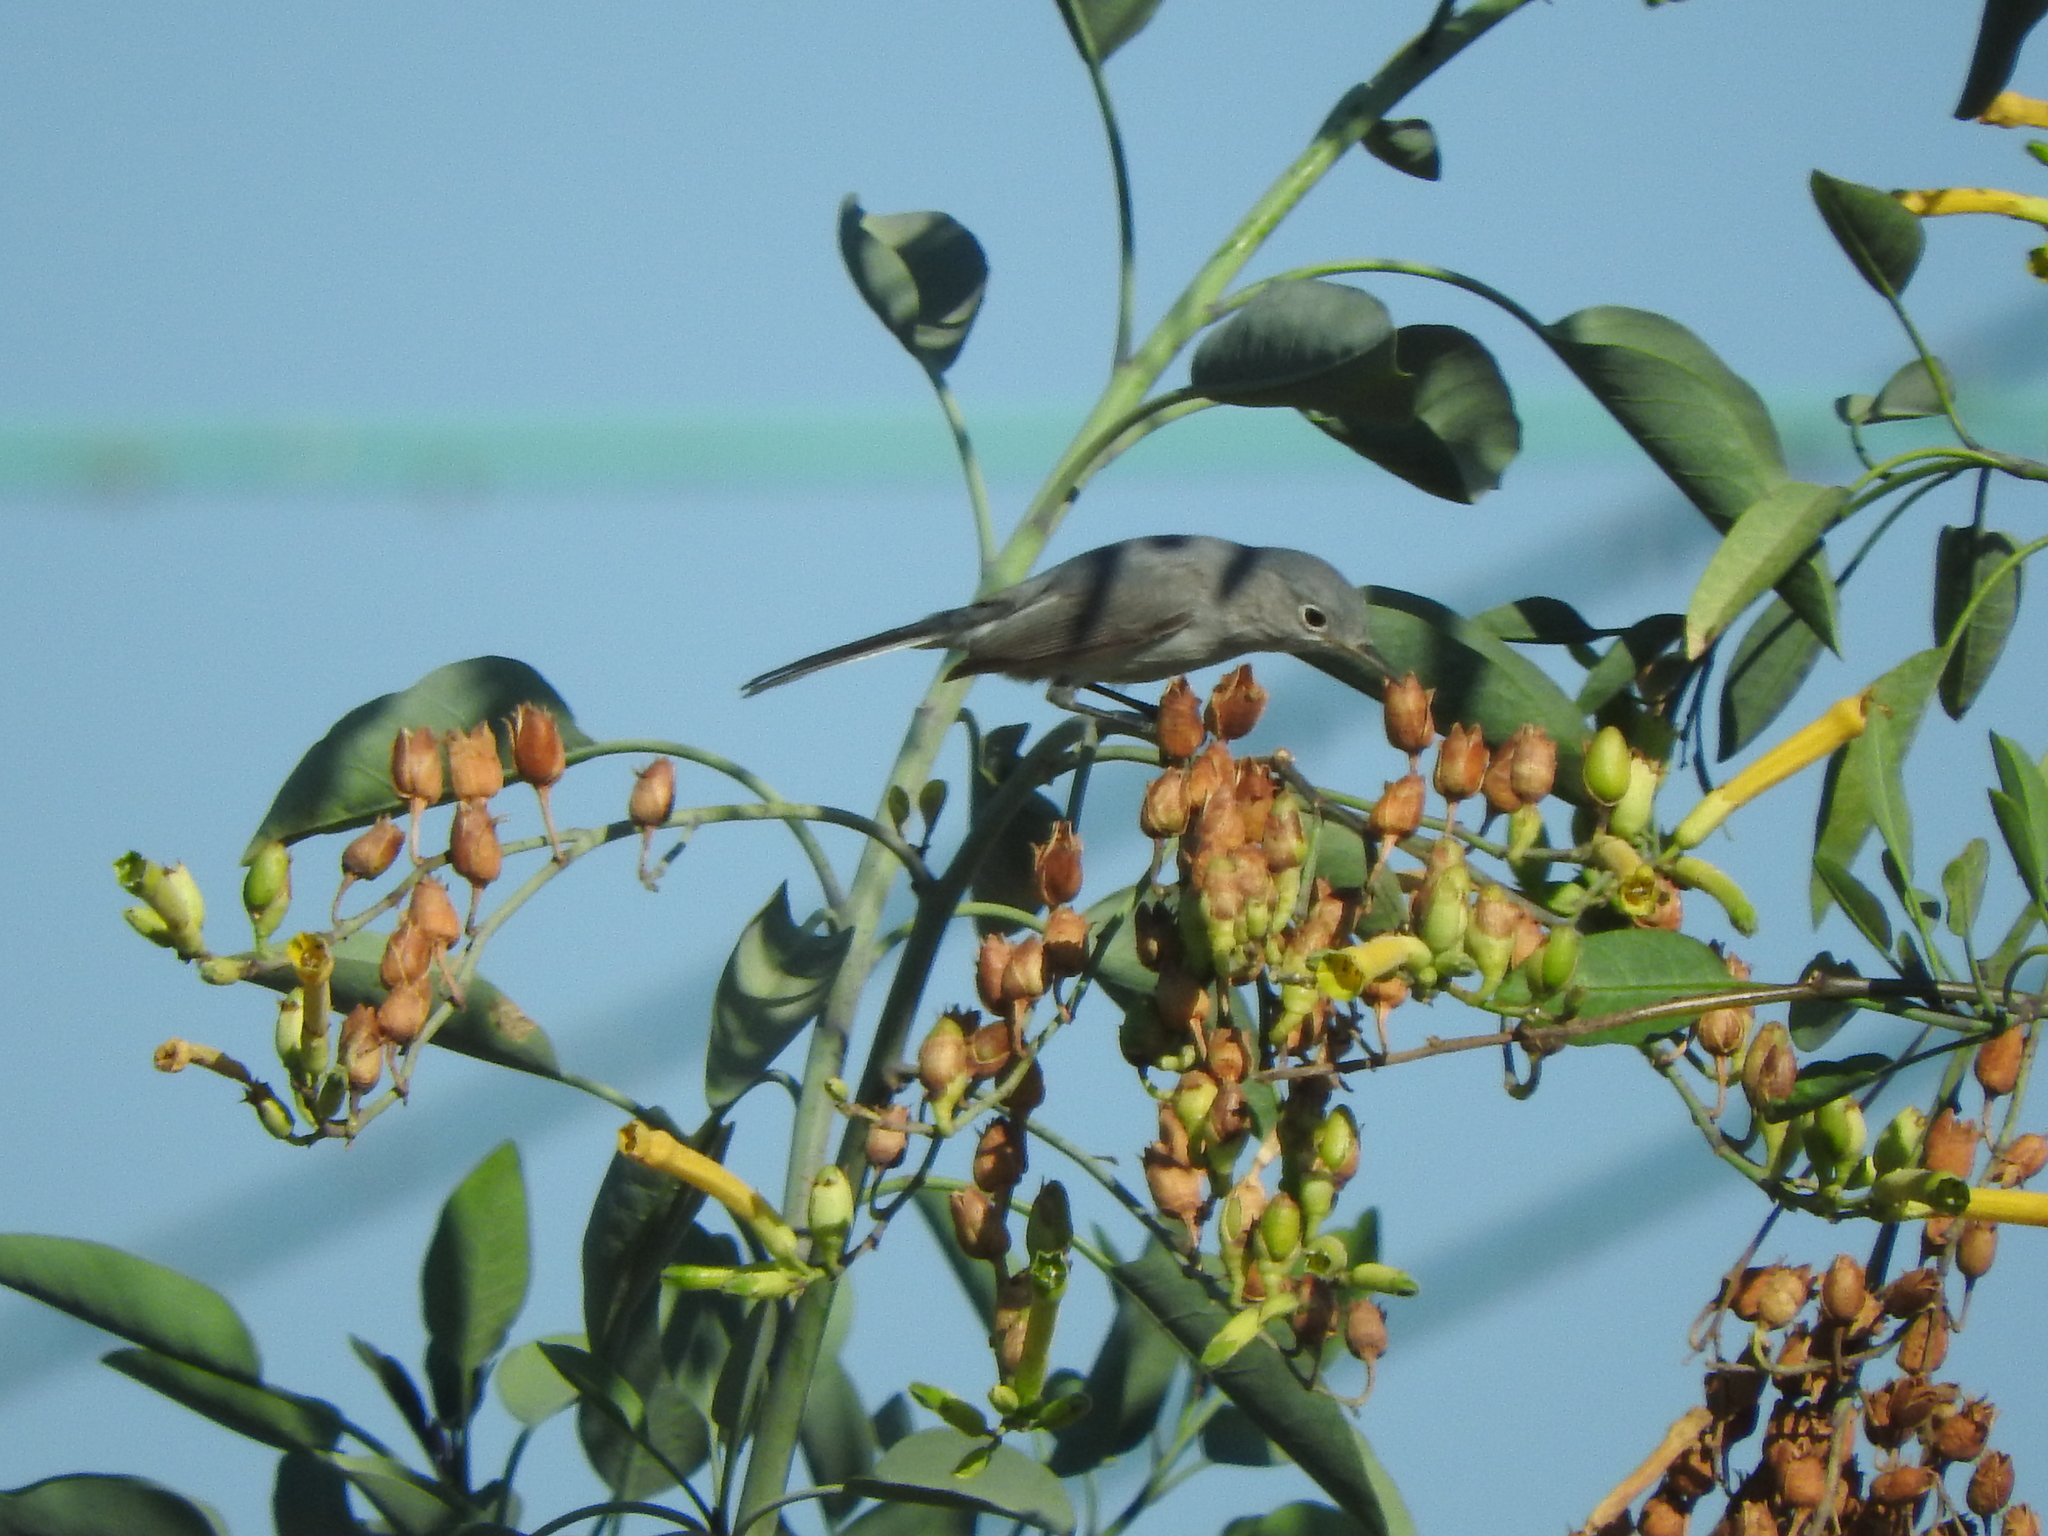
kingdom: Animalia
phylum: Chordata
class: Aves
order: Passeriformes
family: Polioptilidae
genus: Polioptila
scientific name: Polioptila caerulea
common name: Blue-gray gnatcatcher
